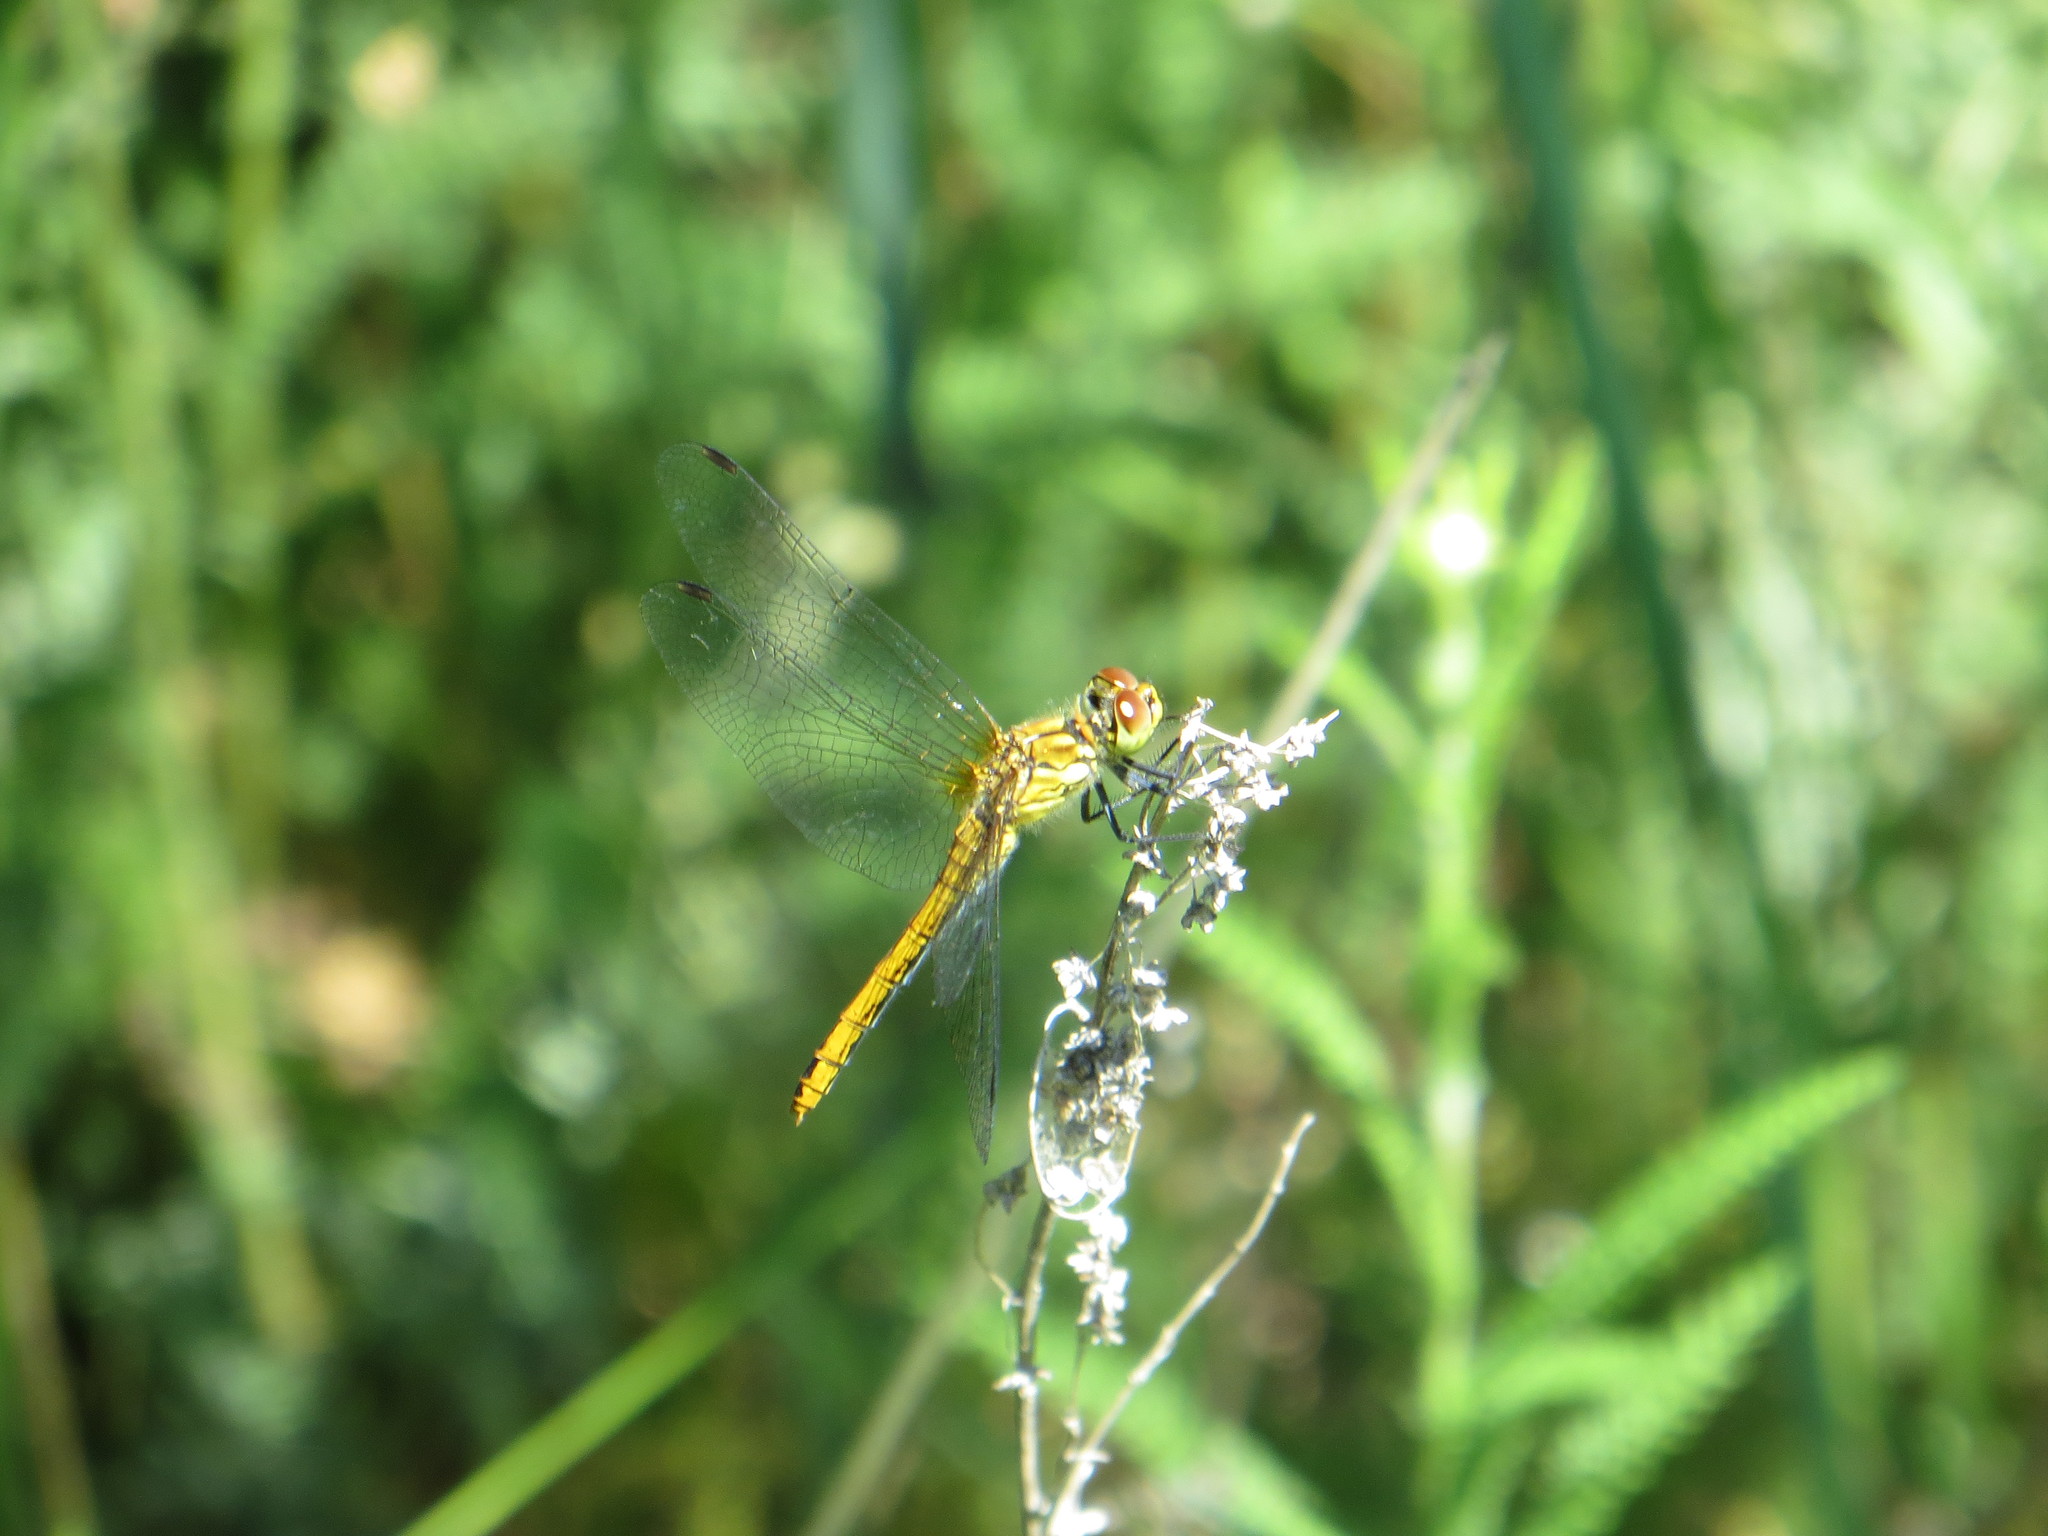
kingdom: Animalia
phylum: Arthropoda
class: Insecta
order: Odonata
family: Libellulidae
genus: Sympetrum
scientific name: Sympetrum sanguineum
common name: Ruddy darter
